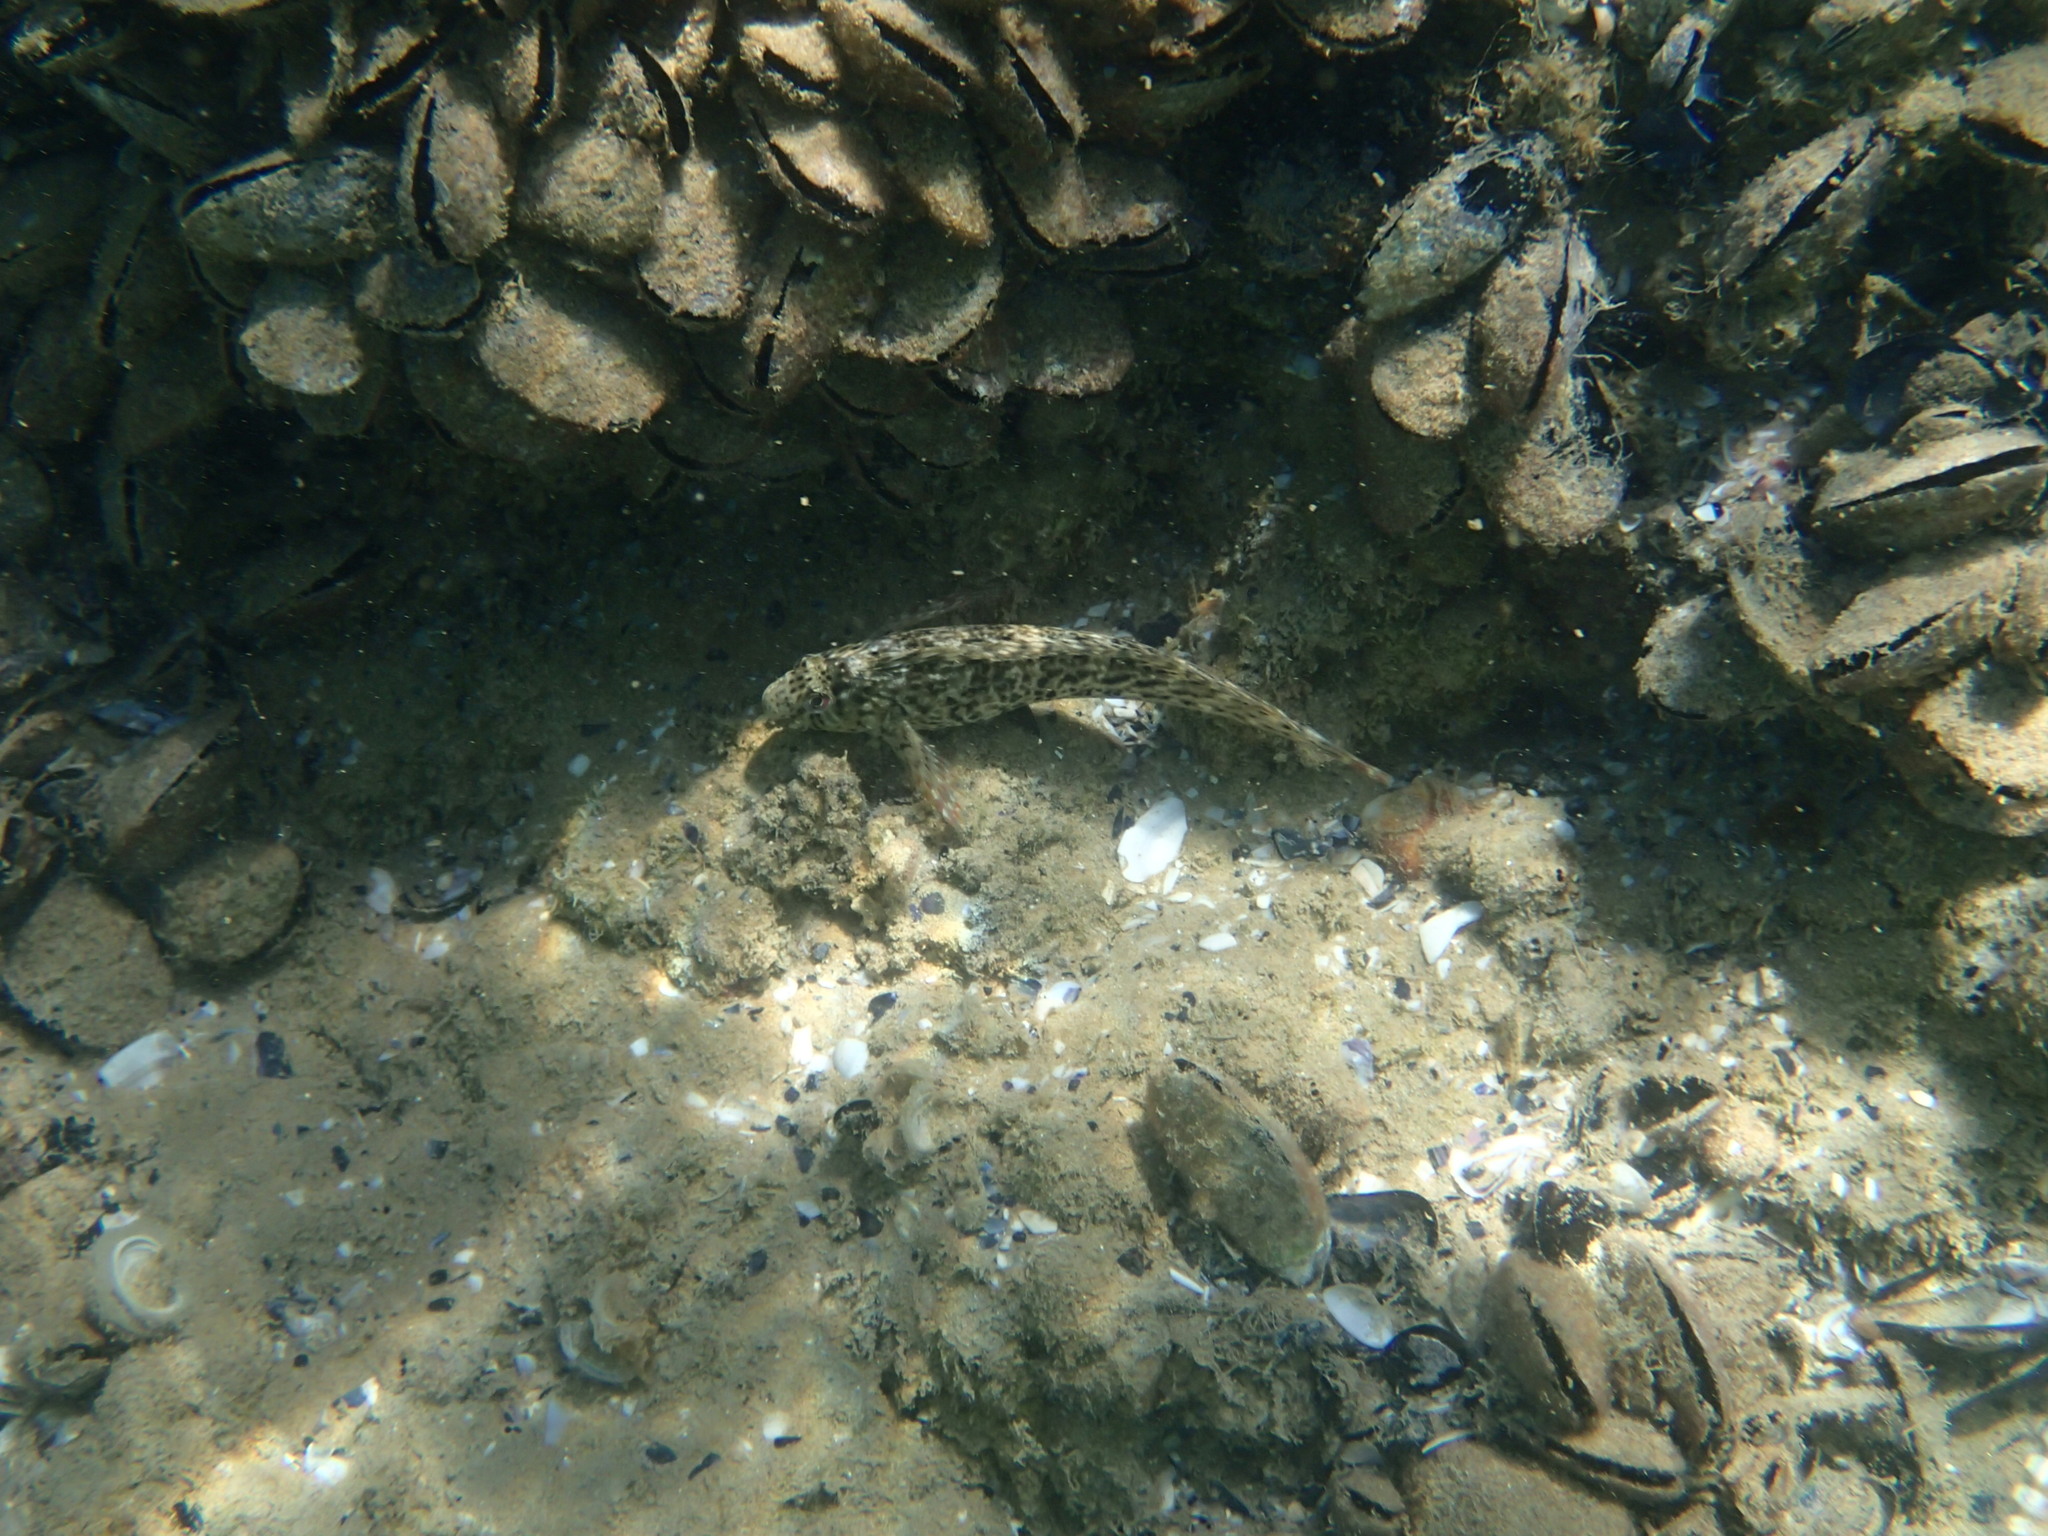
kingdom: Animalia
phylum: Chordata
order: Perciformes
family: Blenniidae
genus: Parablennius
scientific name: Parablennius sanguinolentus
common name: Black sea blenny
